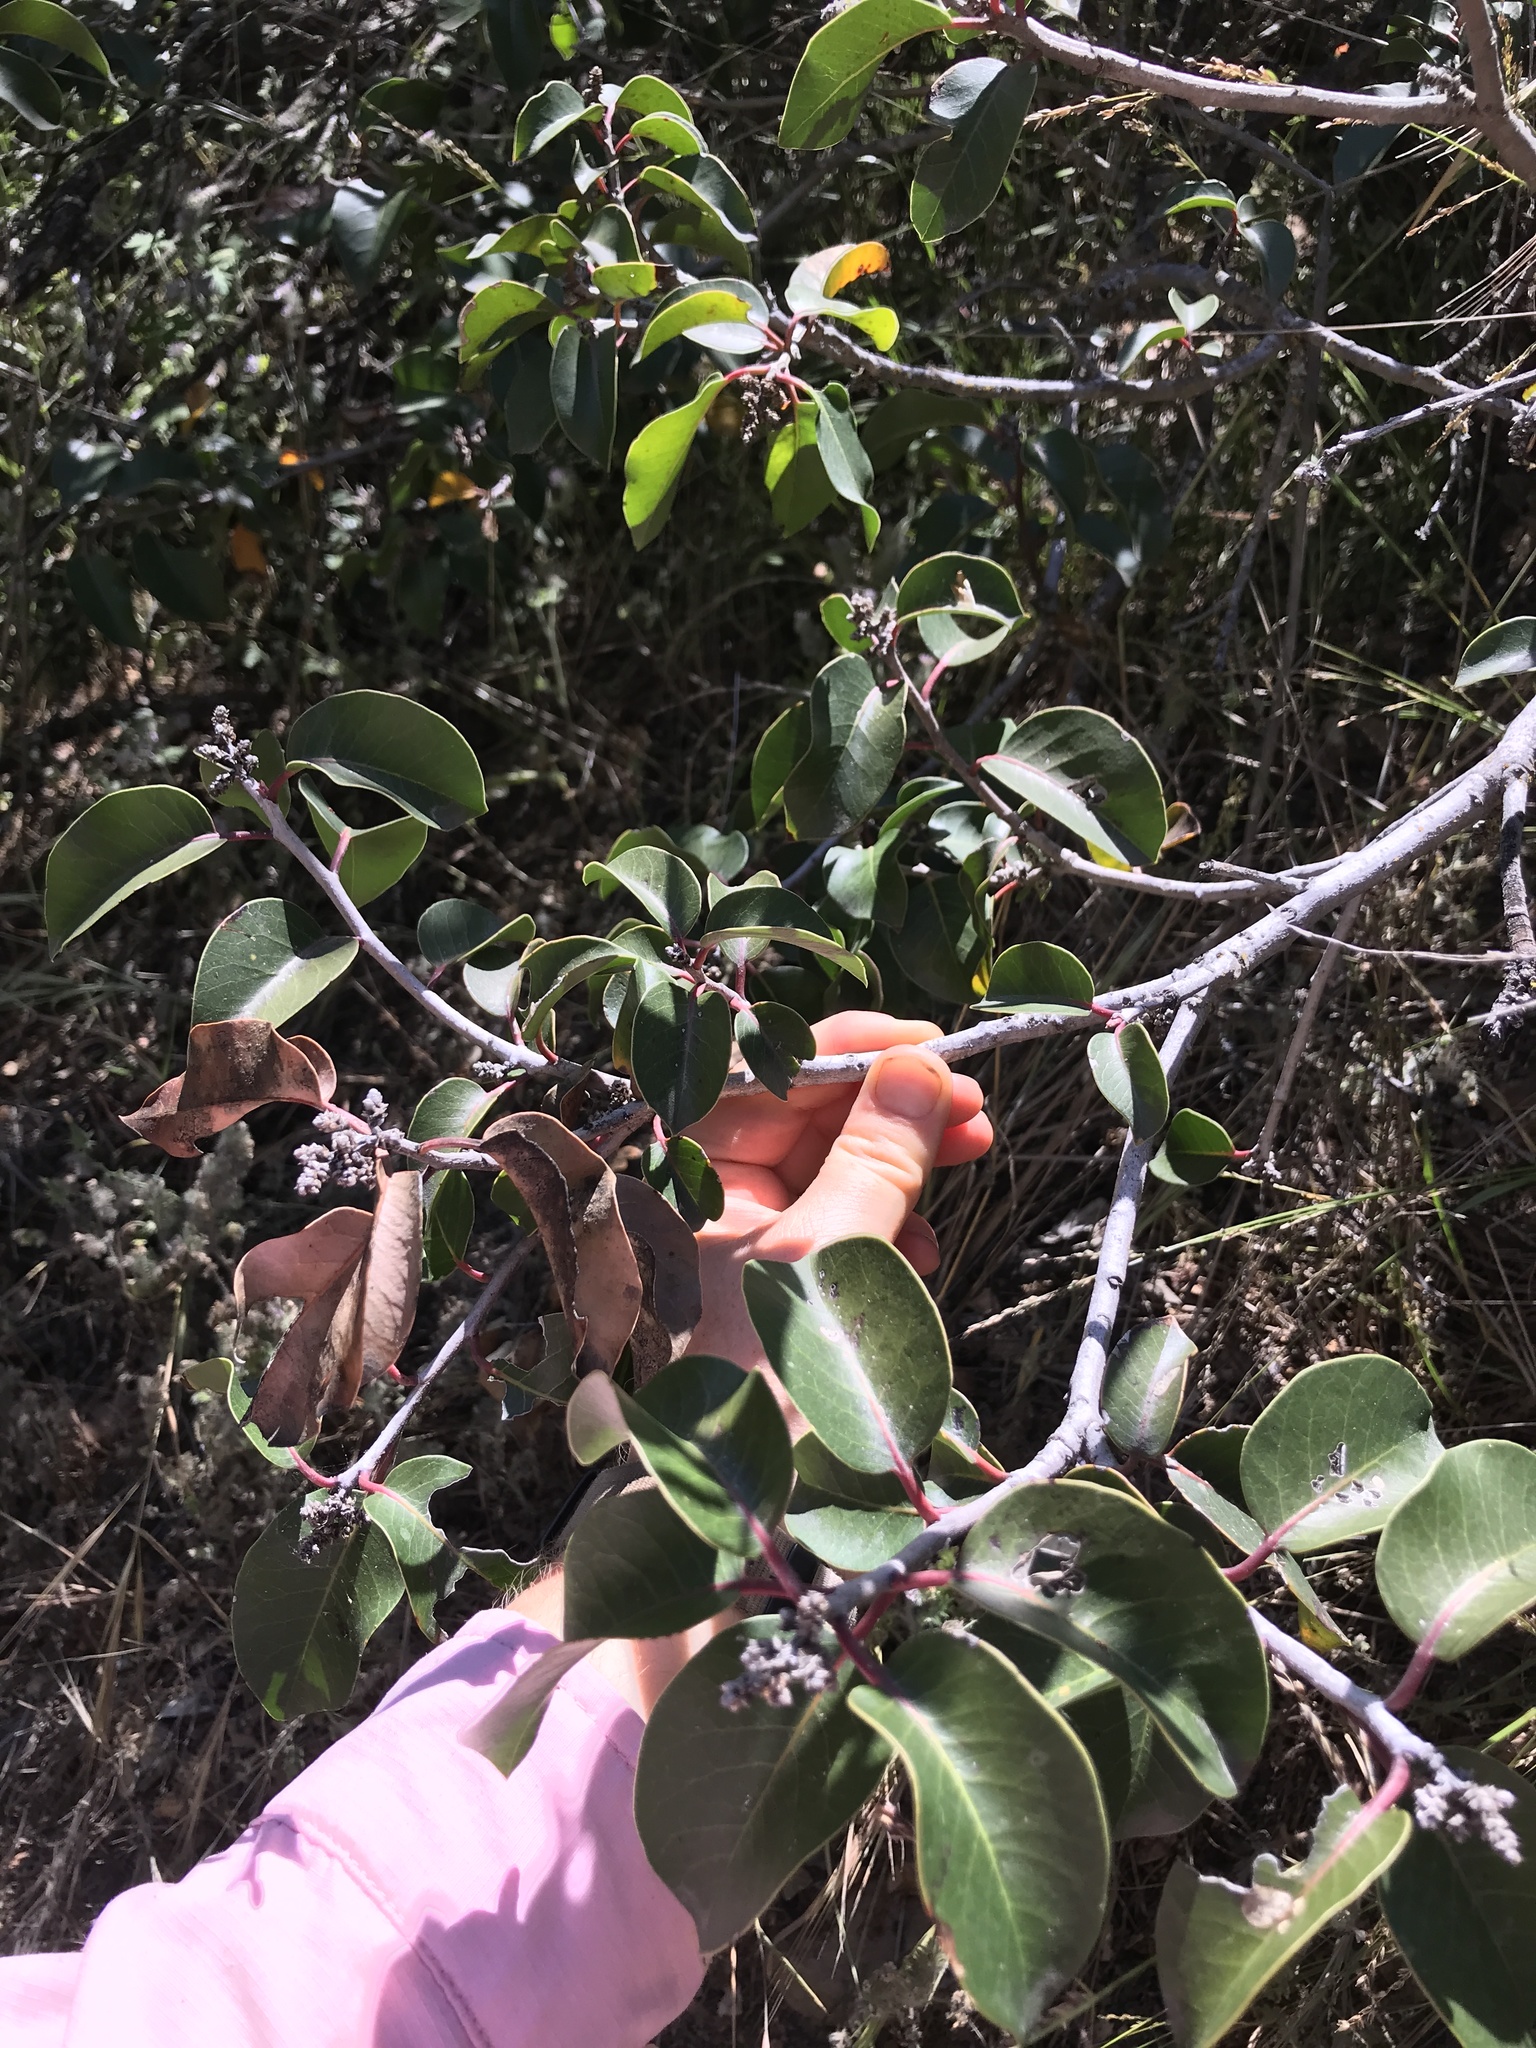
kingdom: Plantae
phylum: Tracheophyta
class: Magnoliopsida
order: Sapindales
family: Anacardiaceae
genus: Rhus
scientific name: Rhus ovata
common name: Sugar sumac
